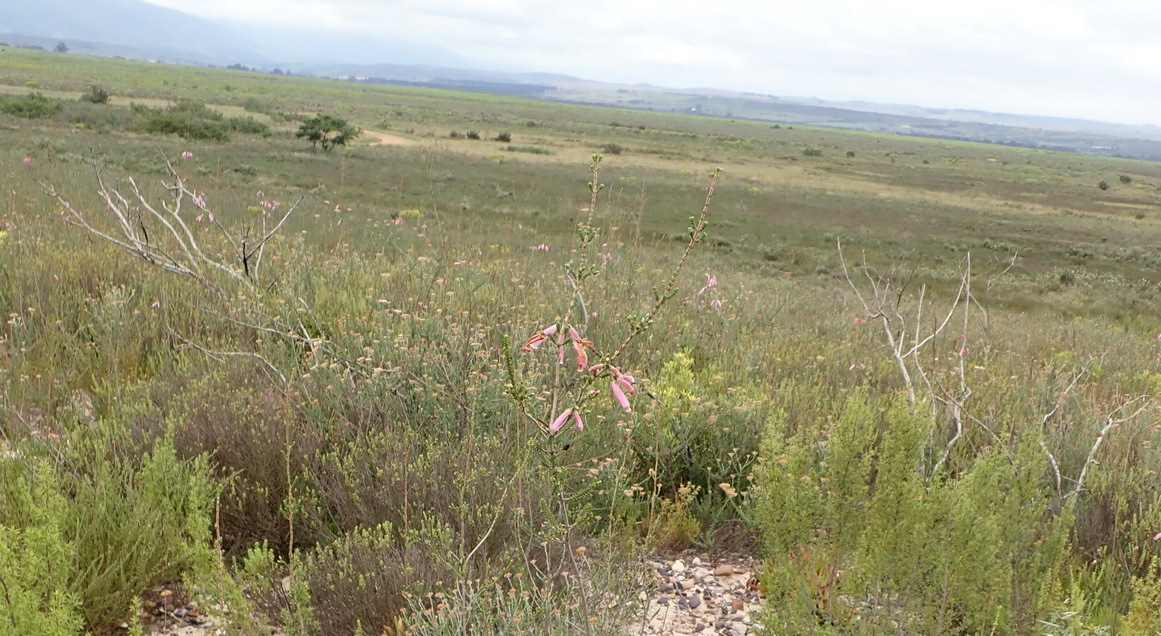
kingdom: Plantae
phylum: Tracheophyta
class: Magnoliopsida
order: Ericales
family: Ericaceae
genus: Erica
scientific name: Erica prolata
